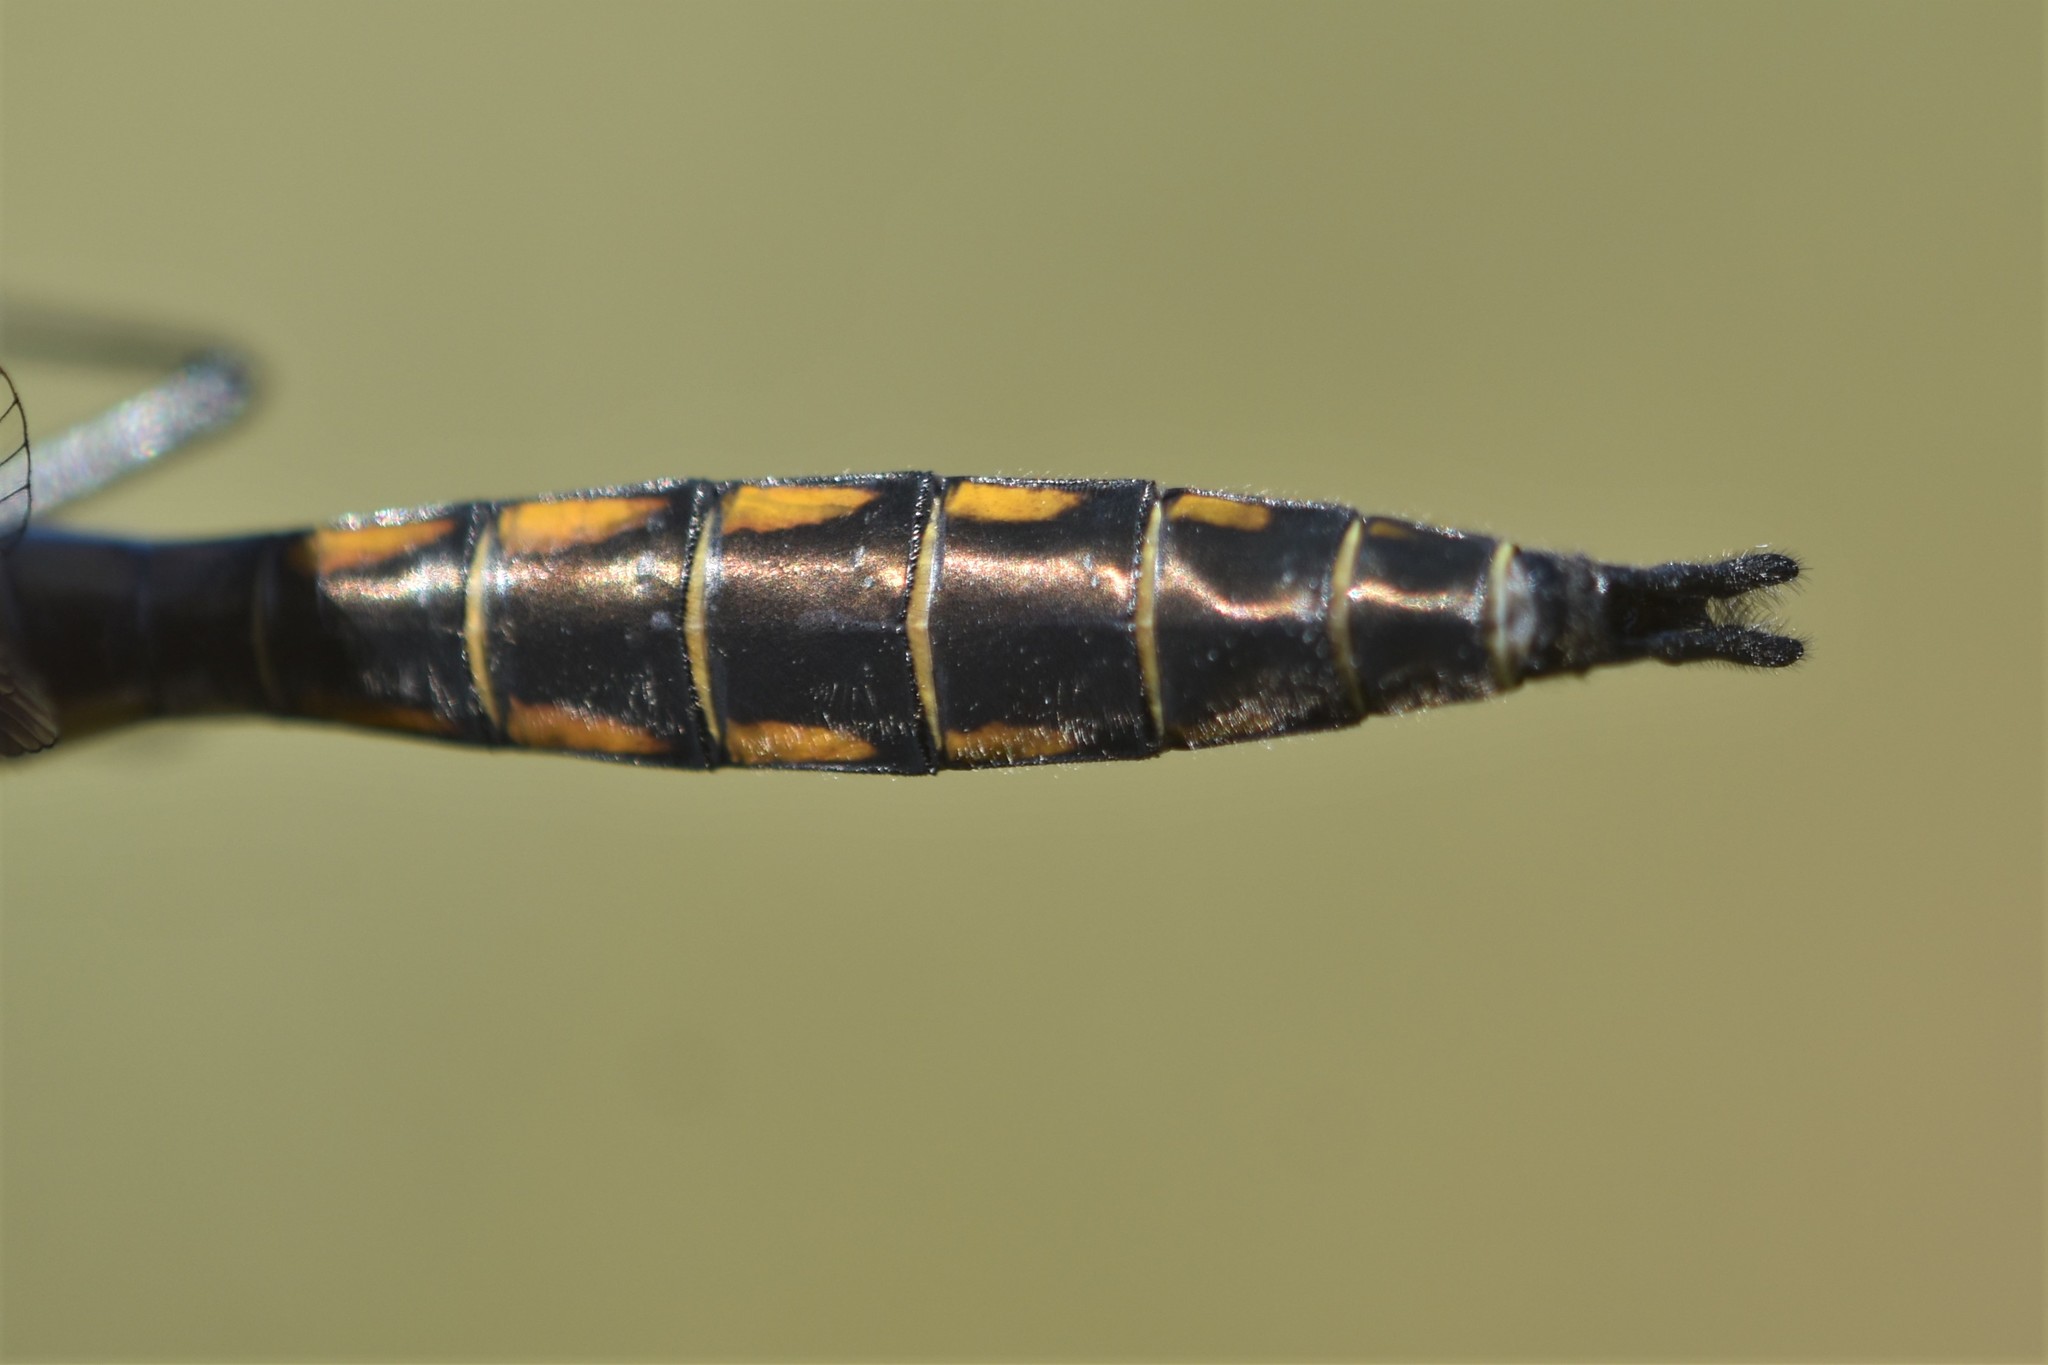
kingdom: Animalia
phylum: Arthropoda
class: Insecta
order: Odonata
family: Corduliidae
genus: Epitheca
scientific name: Epitheca spinigera
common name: Spiny baskettail
